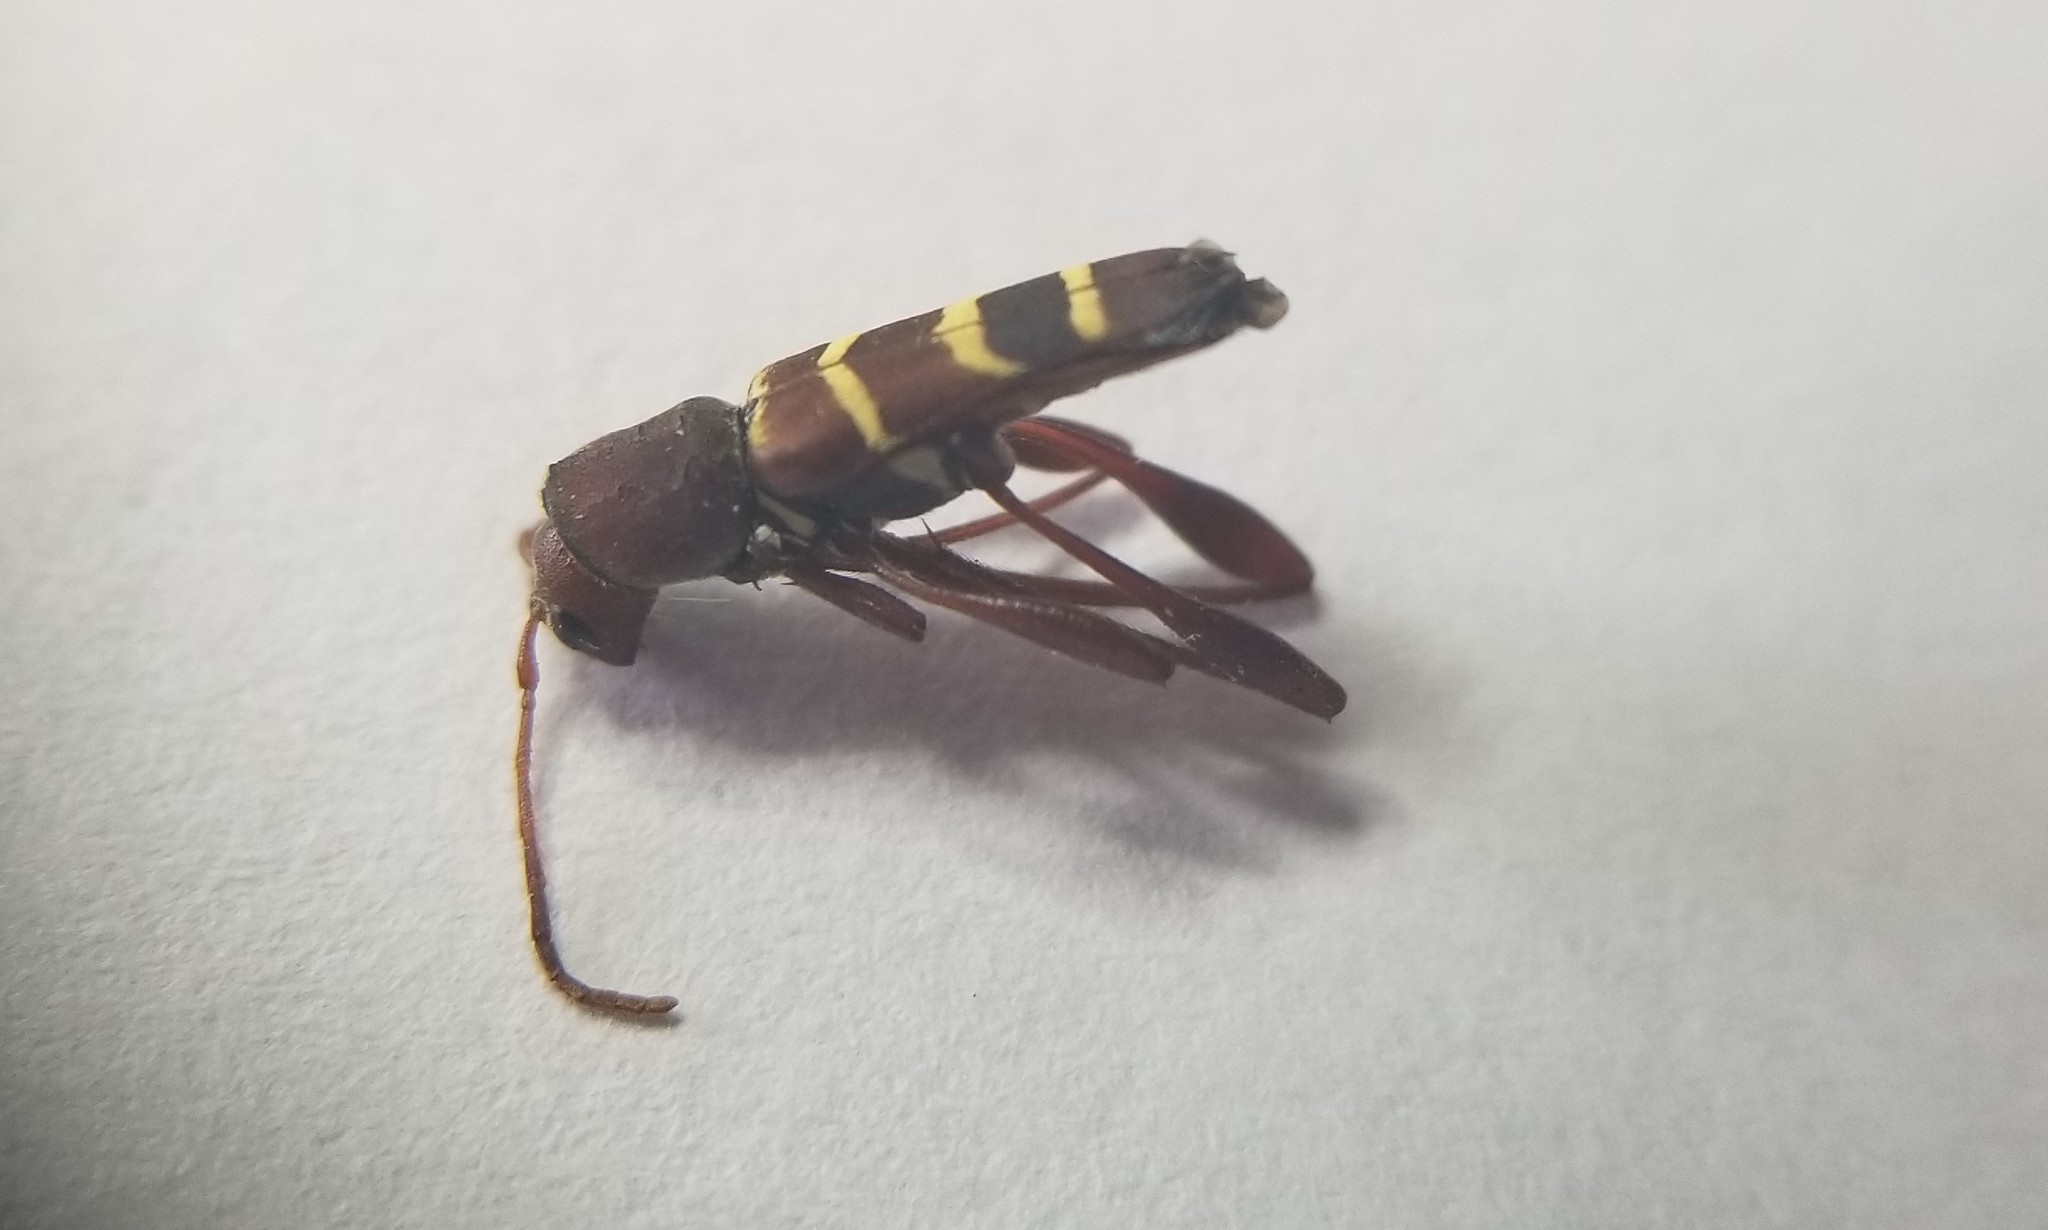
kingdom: Animalia
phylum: Arthropoda
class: Insecta
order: Coleoptera
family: Cerambycidae
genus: Neoclytus
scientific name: Neoclytus acuminatus
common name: Read-headed ash borer
